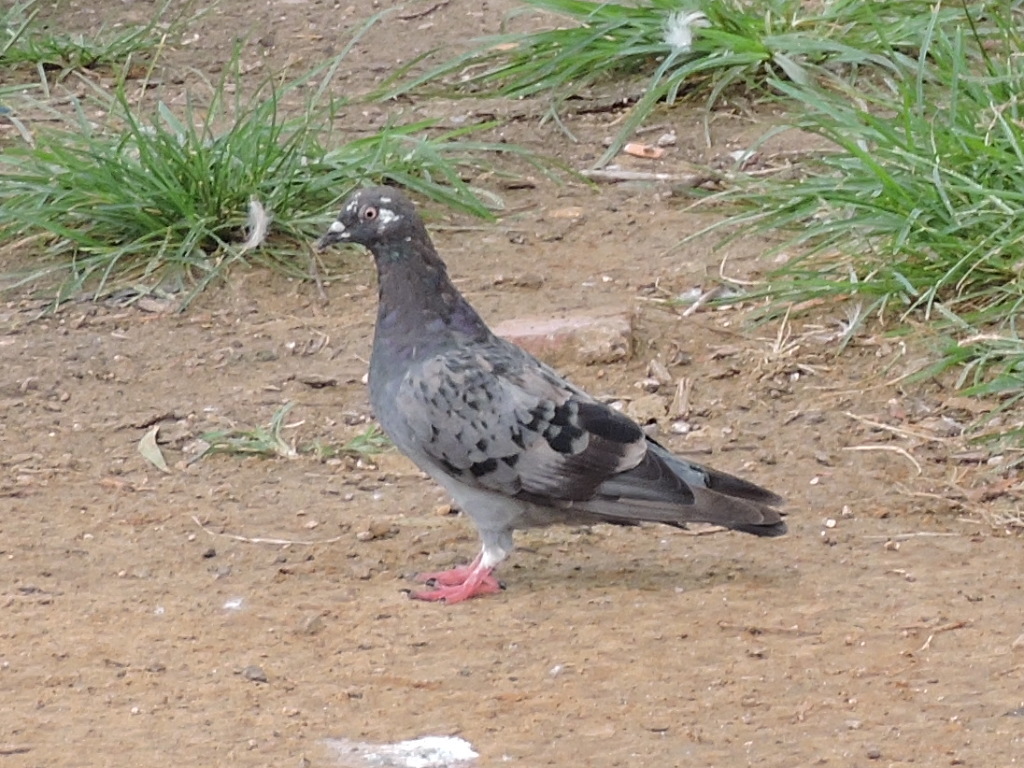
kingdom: Animalia
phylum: Chordata
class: Aves
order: Columbiformes
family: Columbidae
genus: Columba
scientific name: Columba livia
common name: Rock pigeon
